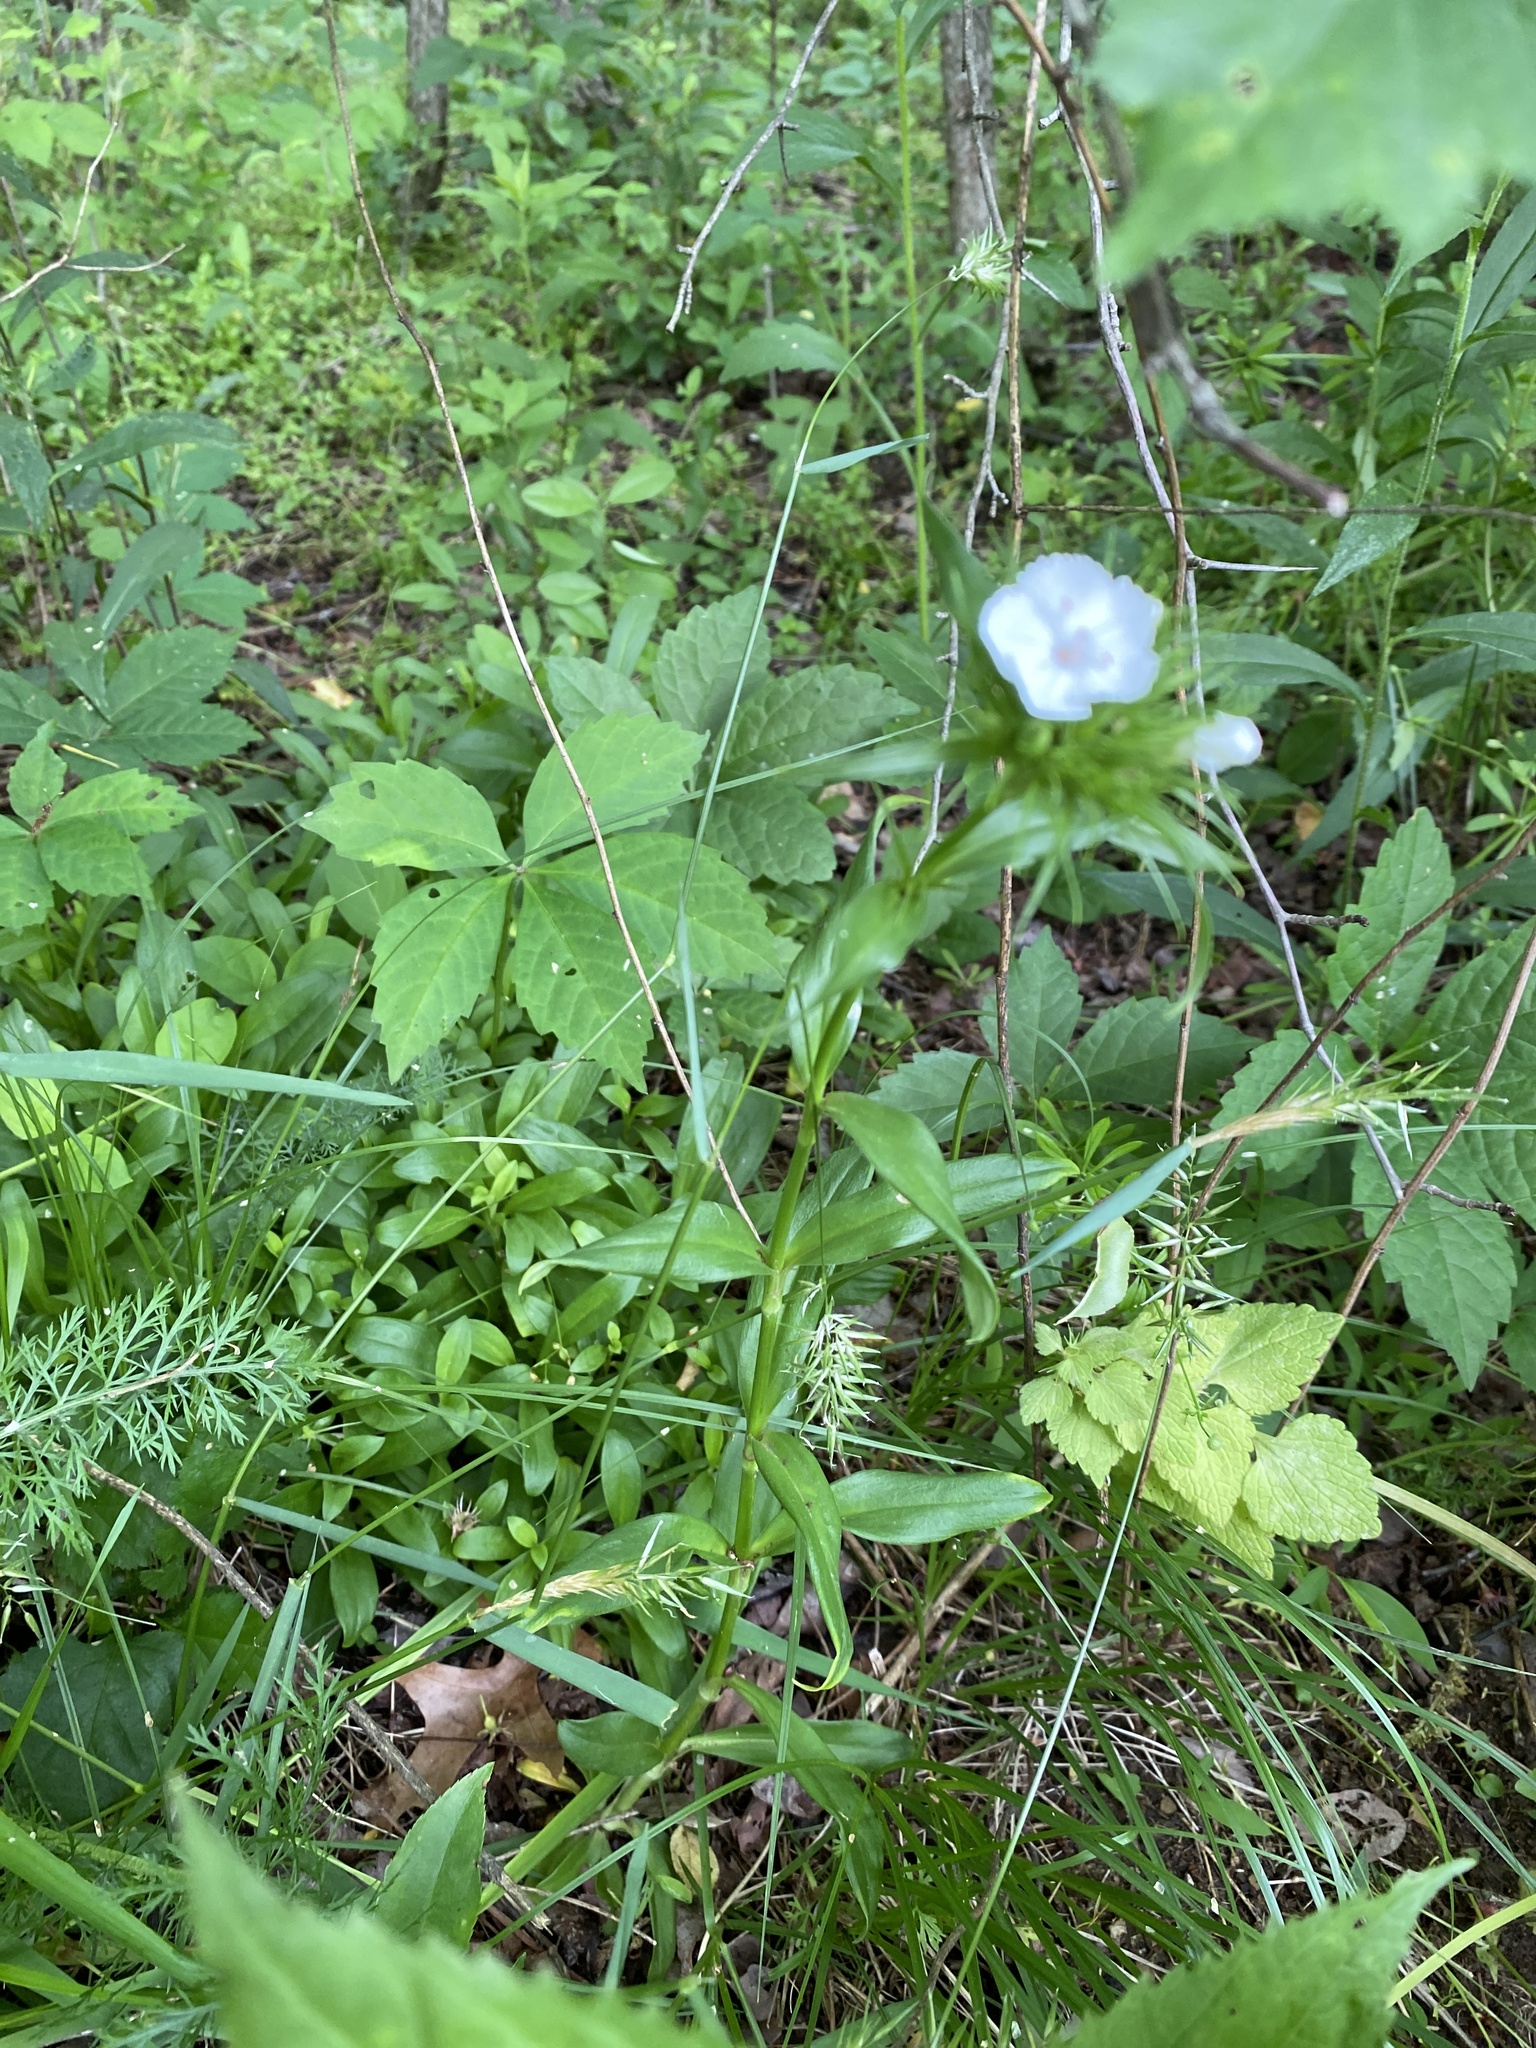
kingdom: Plantae
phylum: Tracheophyta
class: Magnoliopsida
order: Caryophyllales
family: Caryophyllaceae
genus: Dianthus
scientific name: Dianthus barbatus
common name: Sweet-william
